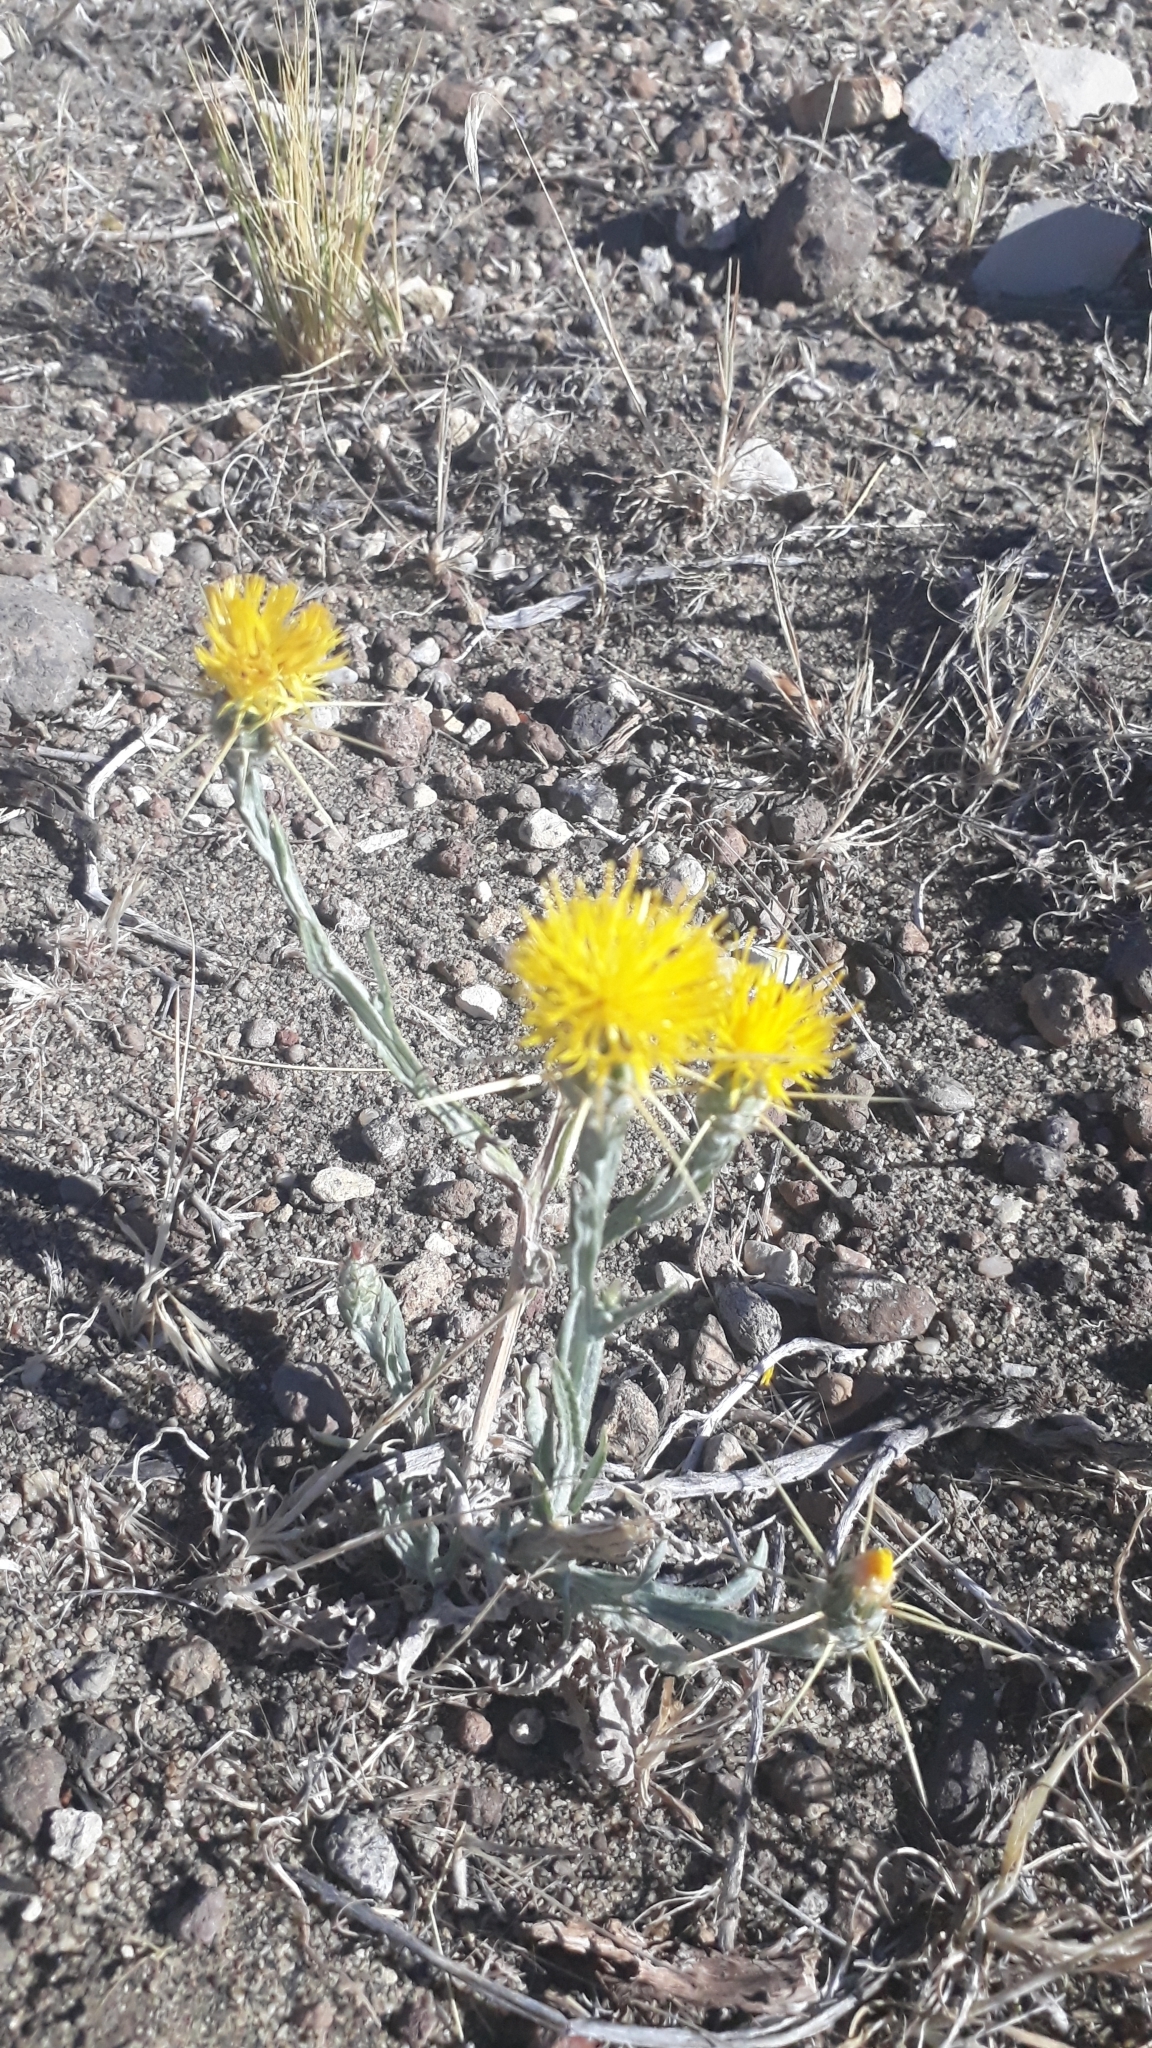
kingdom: Plantae
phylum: Tracheophyta
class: Magnoliopsida
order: Asterales
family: Asteraceae
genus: Centaurea
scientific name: Centaurea solstitialis
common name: Yellow star-thistle
